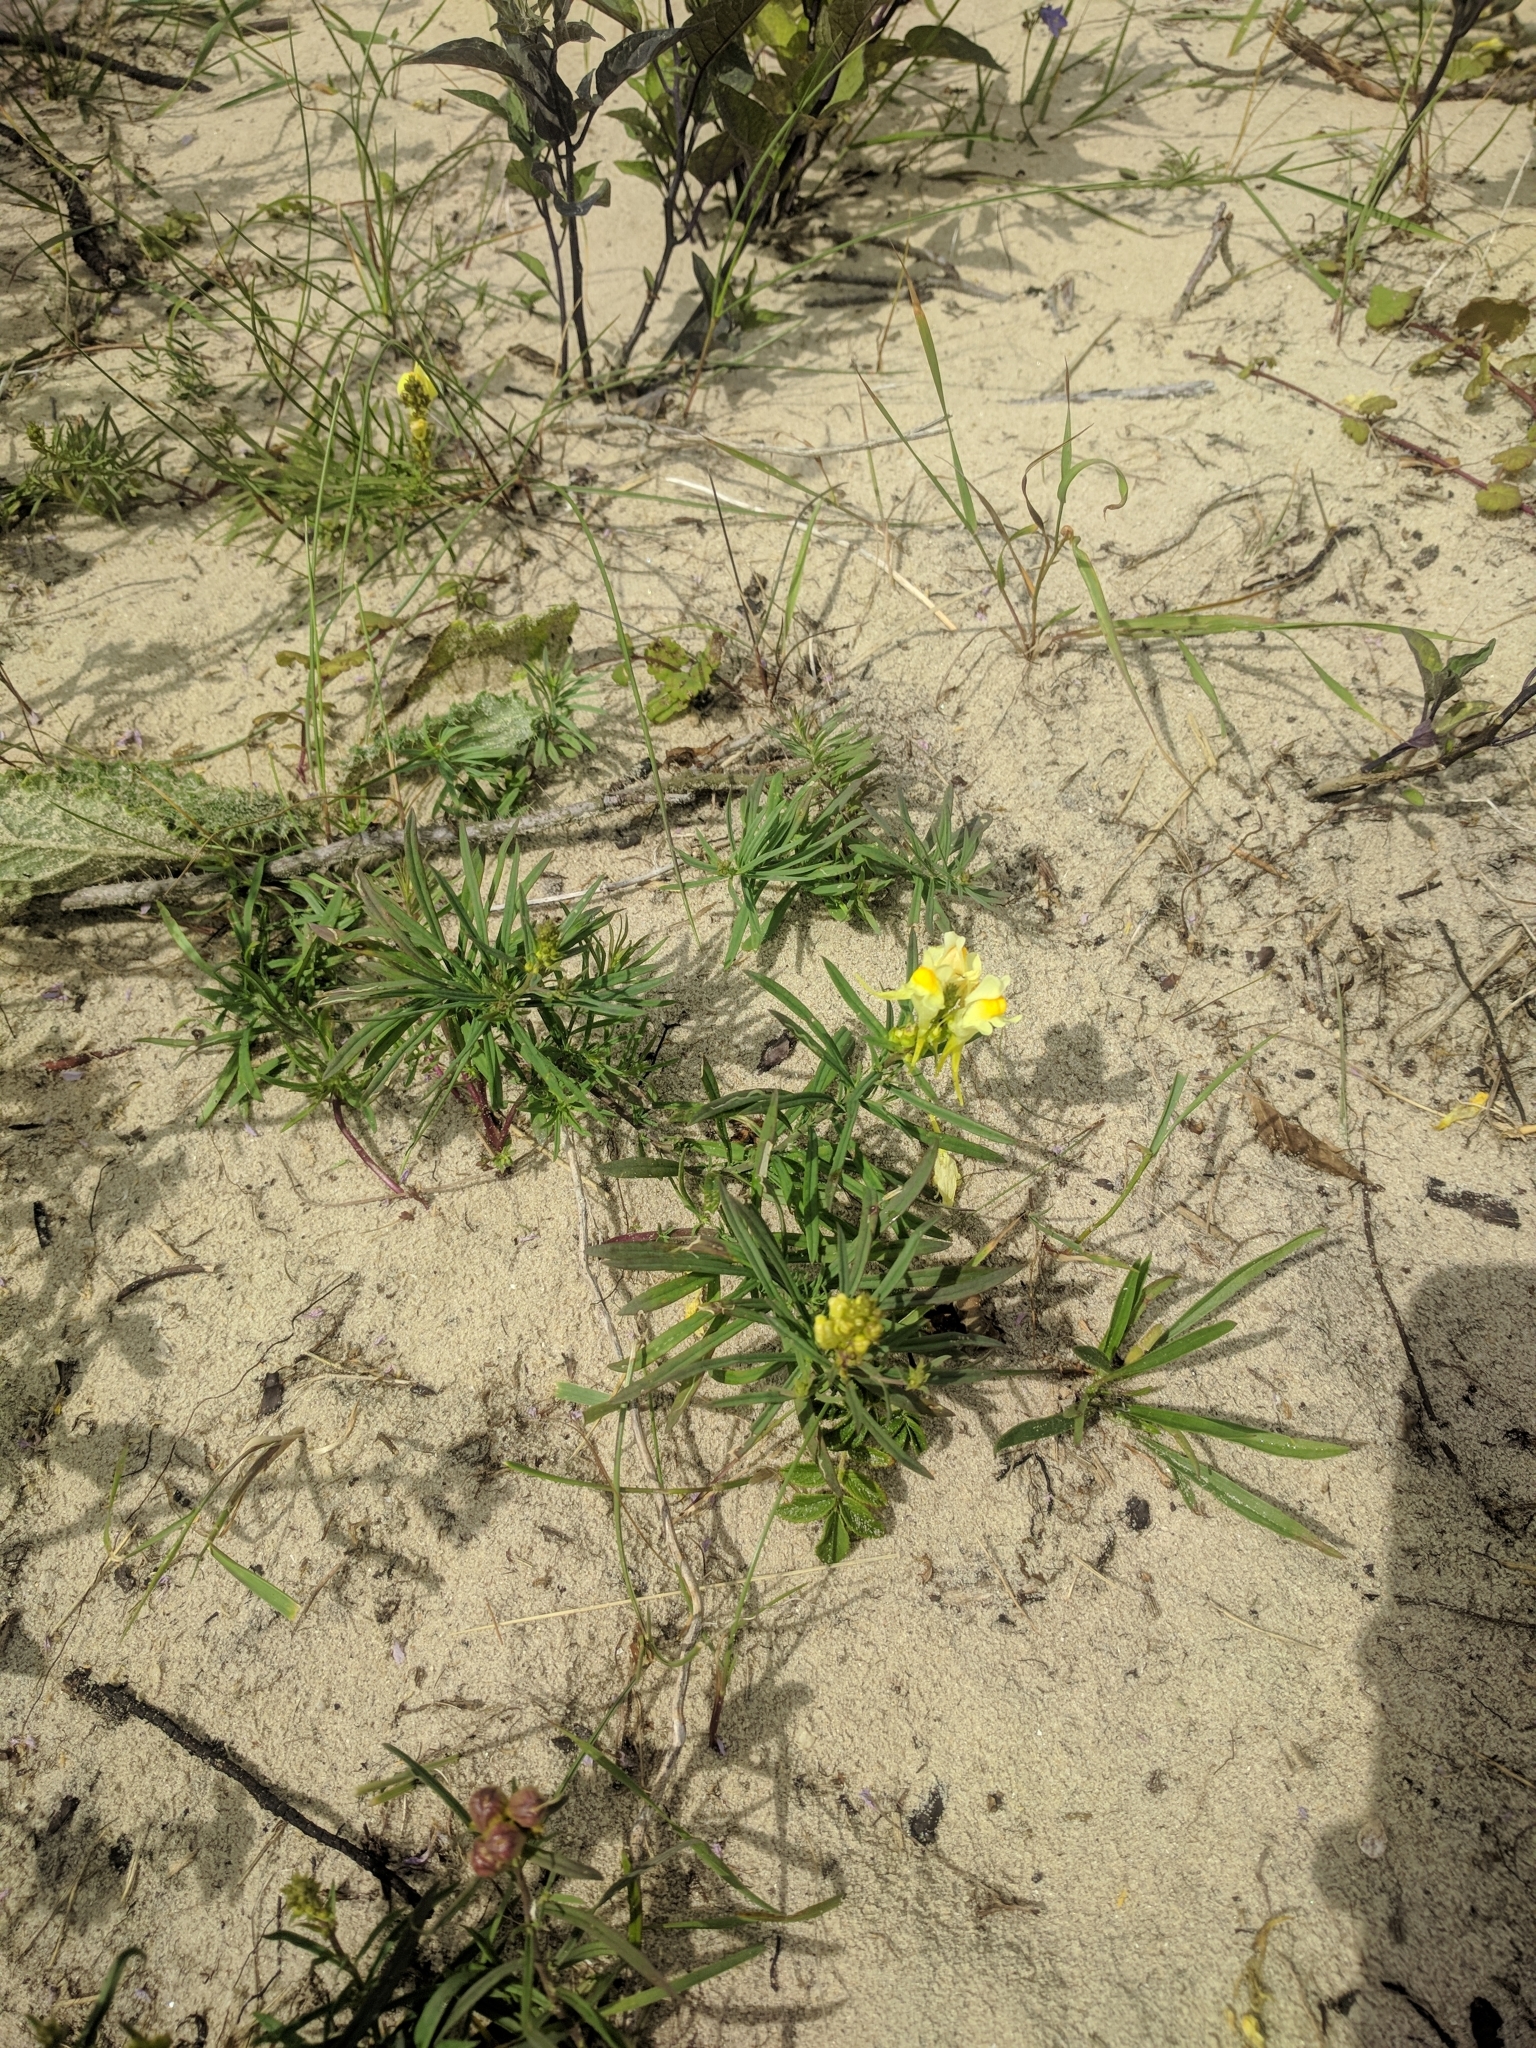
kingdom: Plantae
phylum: Tracheophyta
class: Magnoliopsida
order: Lamiales
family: Plantaginaceae
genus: Linaria
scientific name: Linaria vulgaris
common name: Butter and eggs
